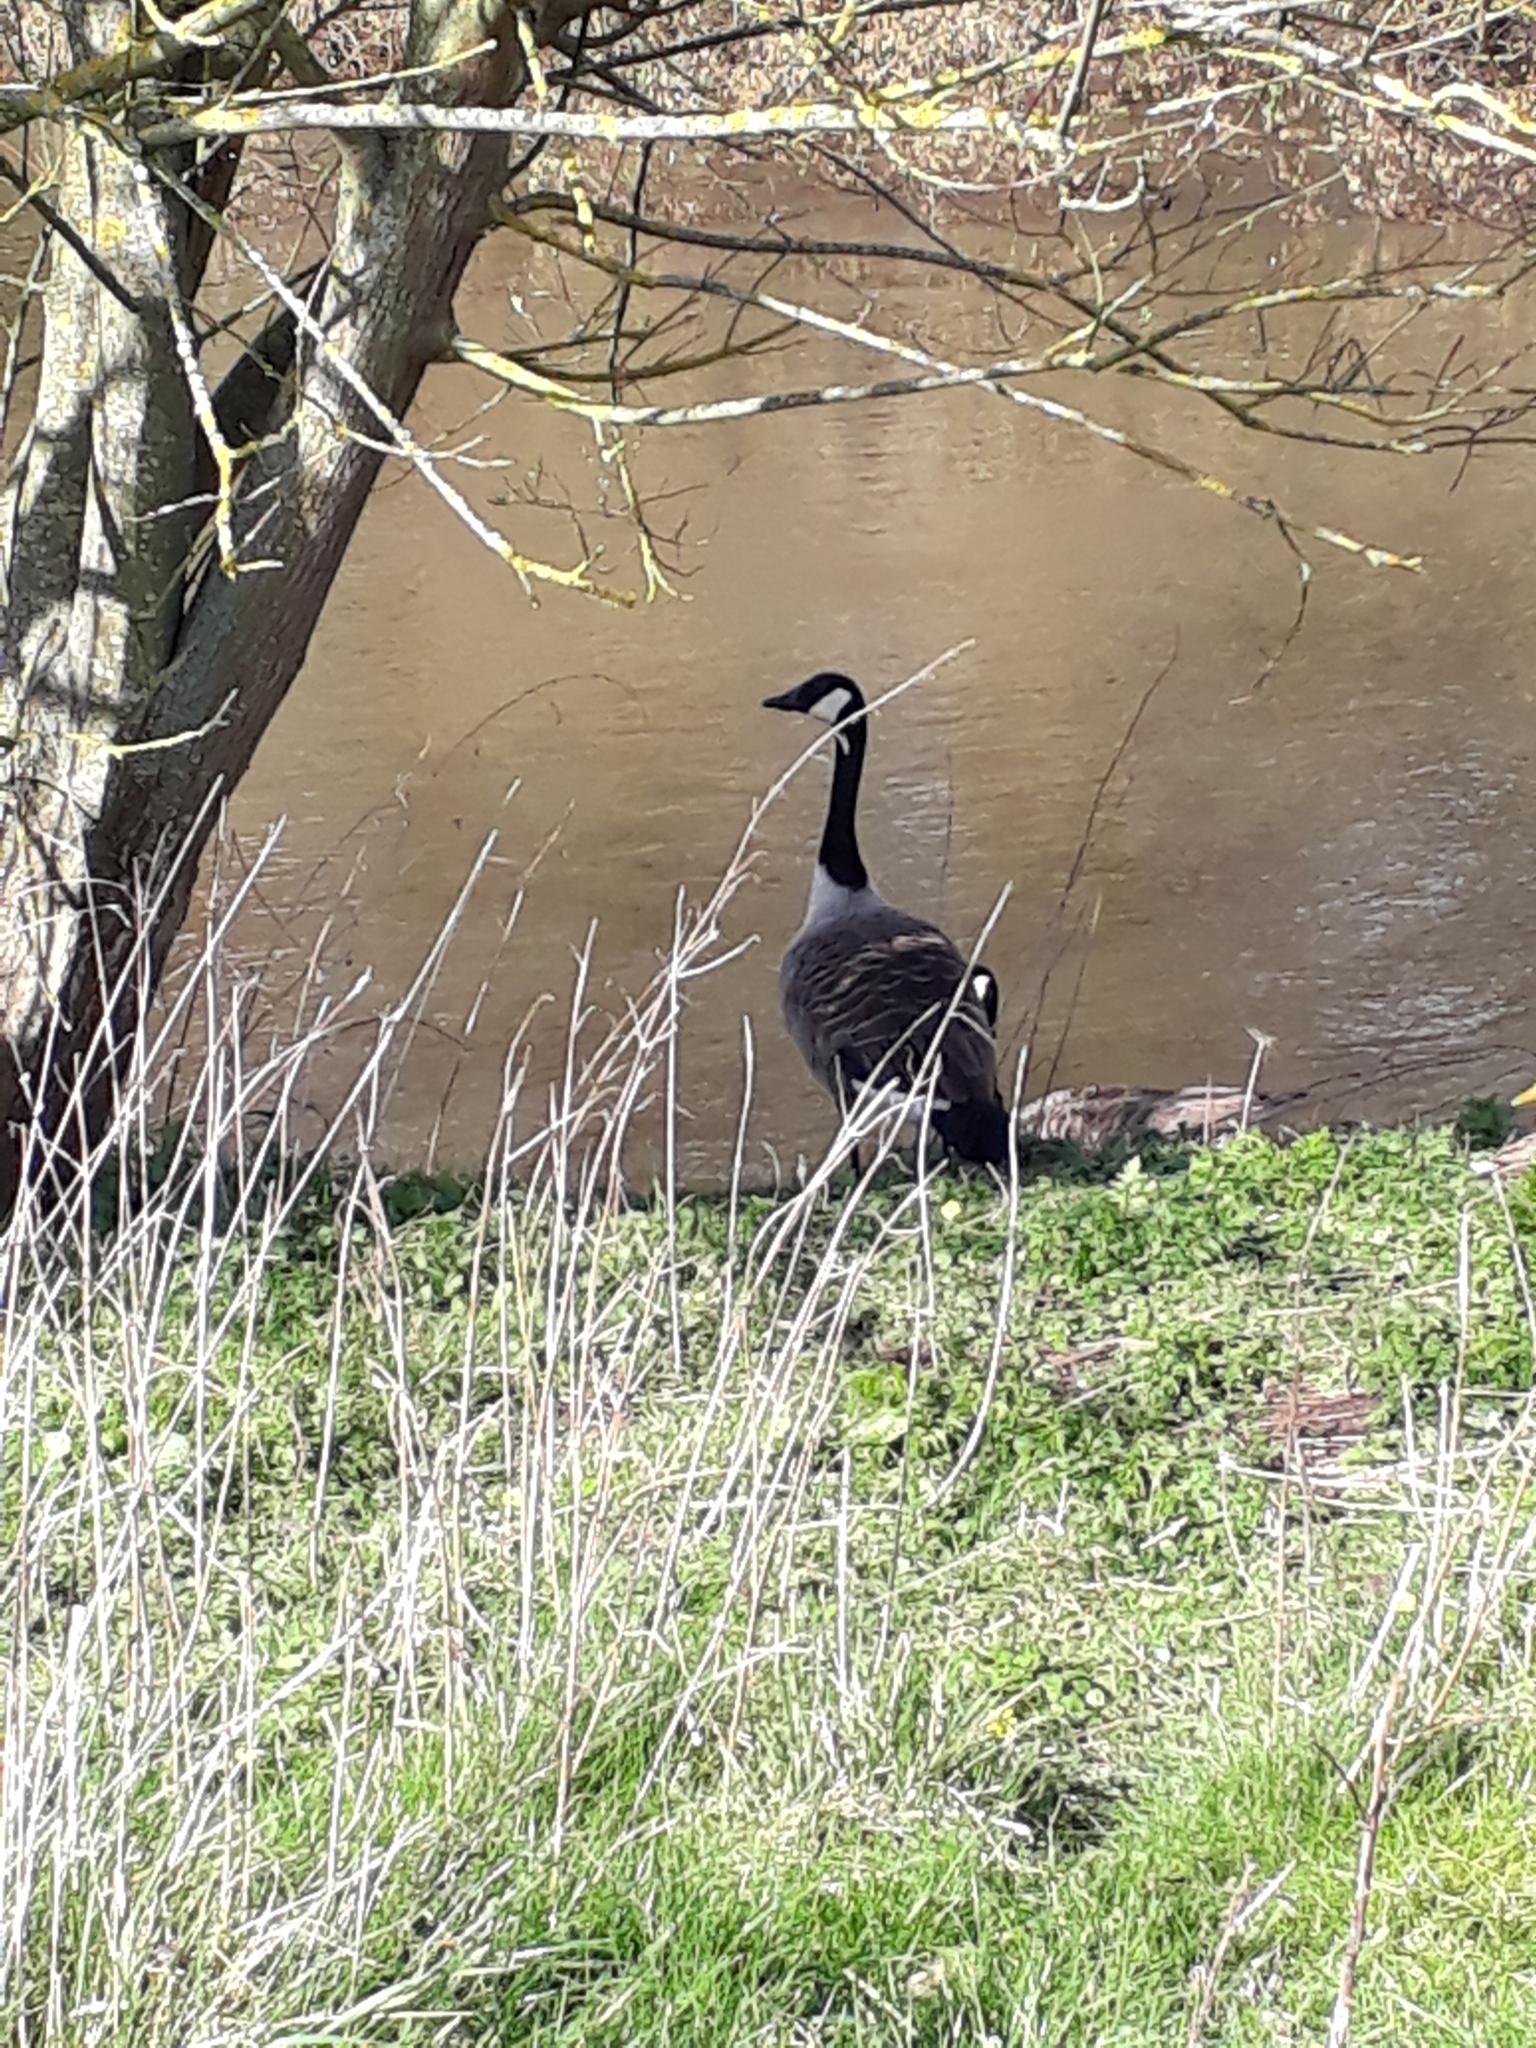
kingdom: Animalia
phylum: Chordata
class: Aves
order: Anseriformes
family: Anatidae
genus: Branta
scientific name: Branta canadensis
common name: Canada goose
